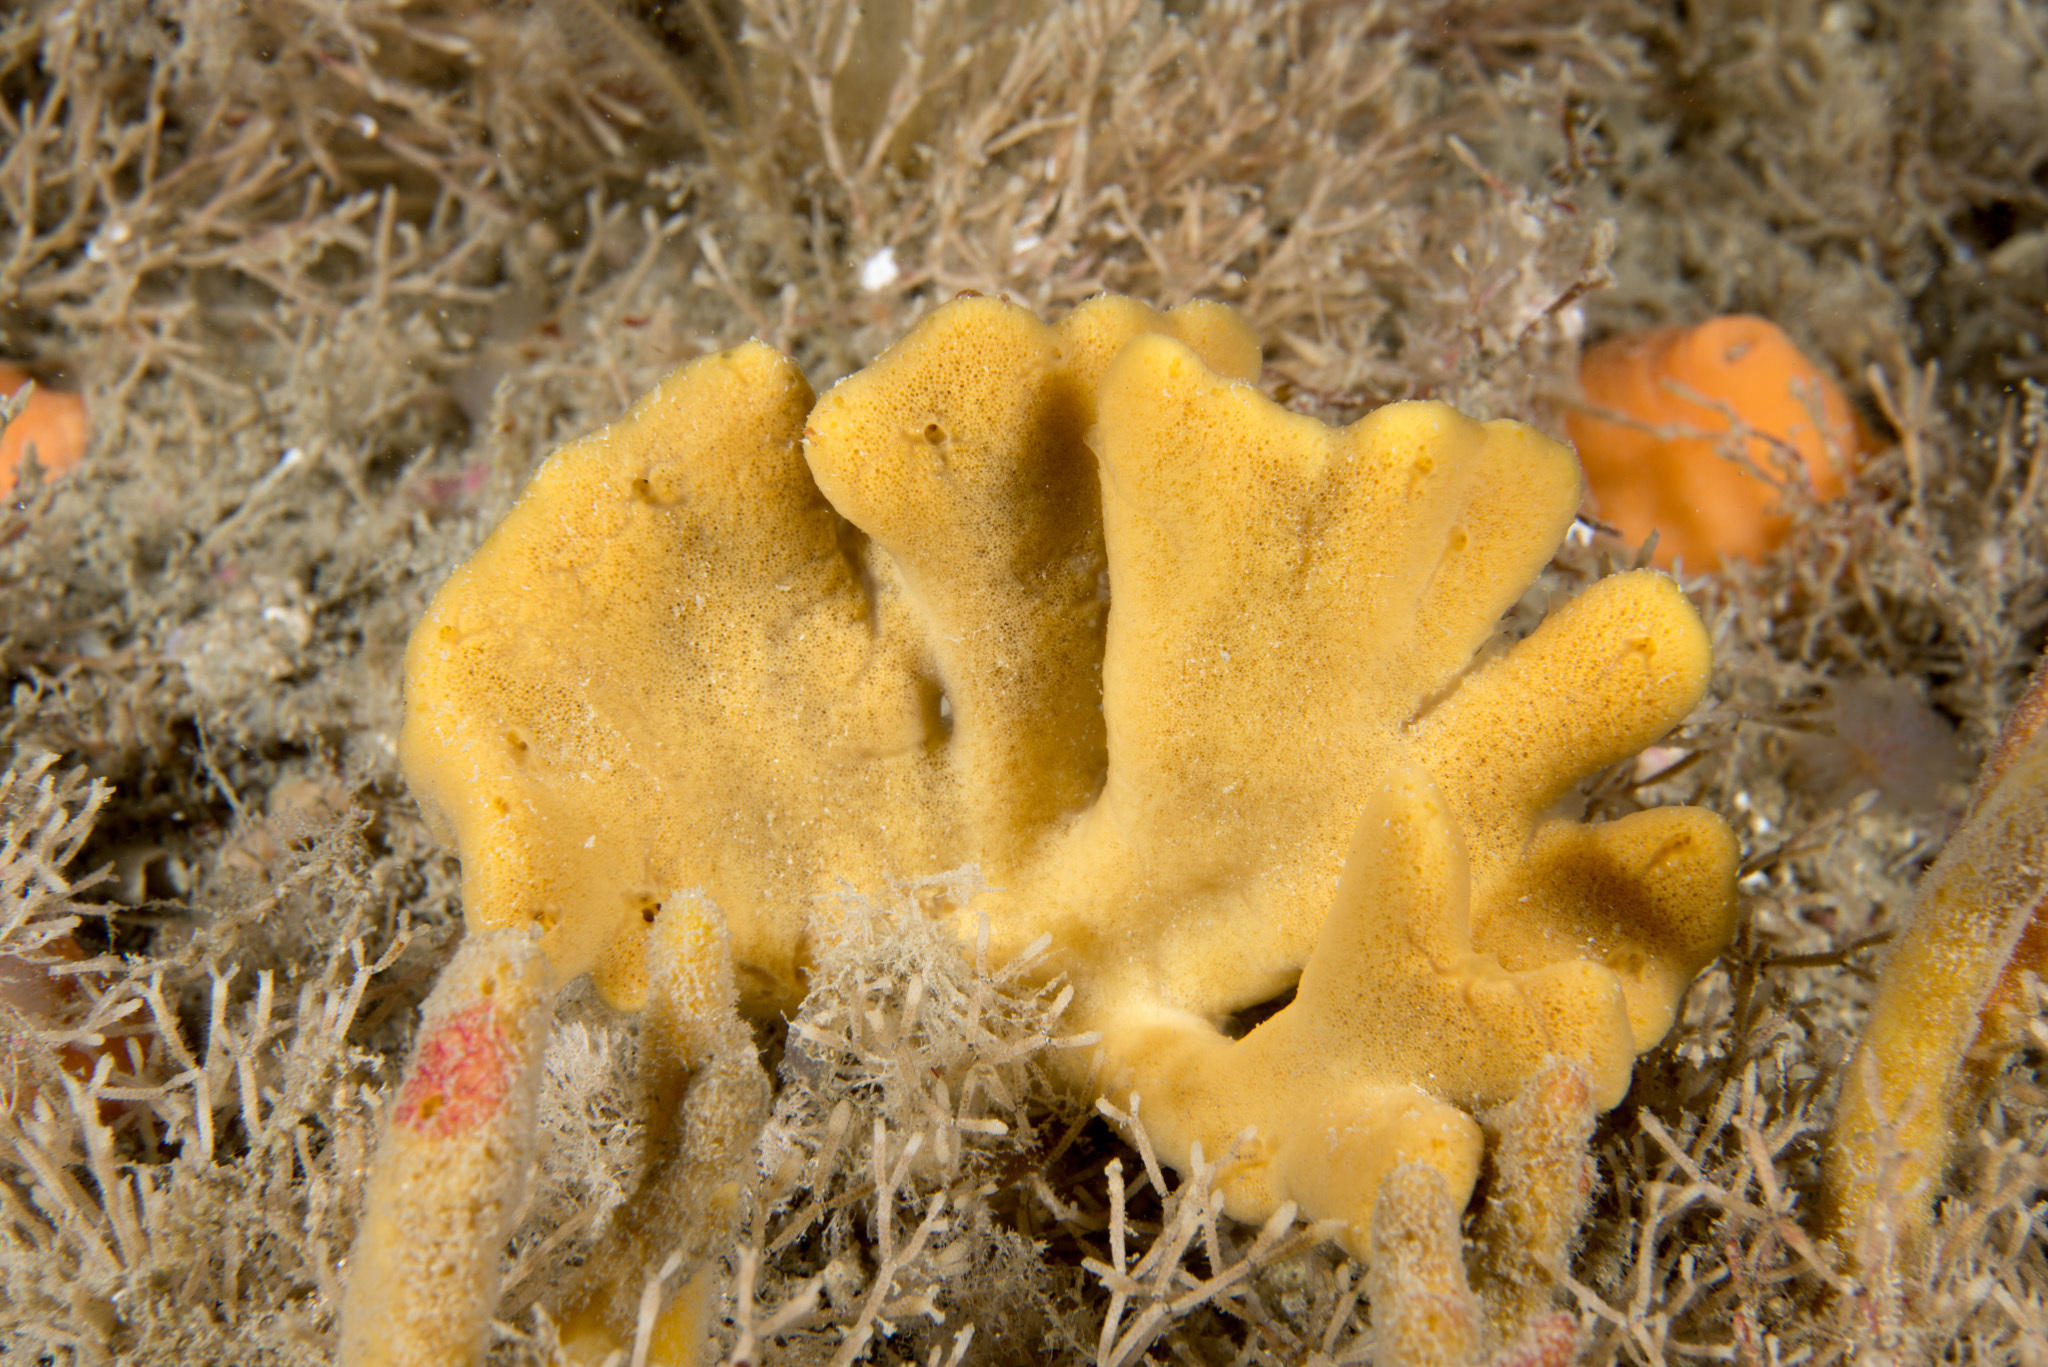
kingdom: Animalia
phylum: Porifera
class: Demospongiae
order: Axinellida
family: Axinellidae
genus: Axinella
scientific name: Axinella dissimilis
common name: Branching sponge
